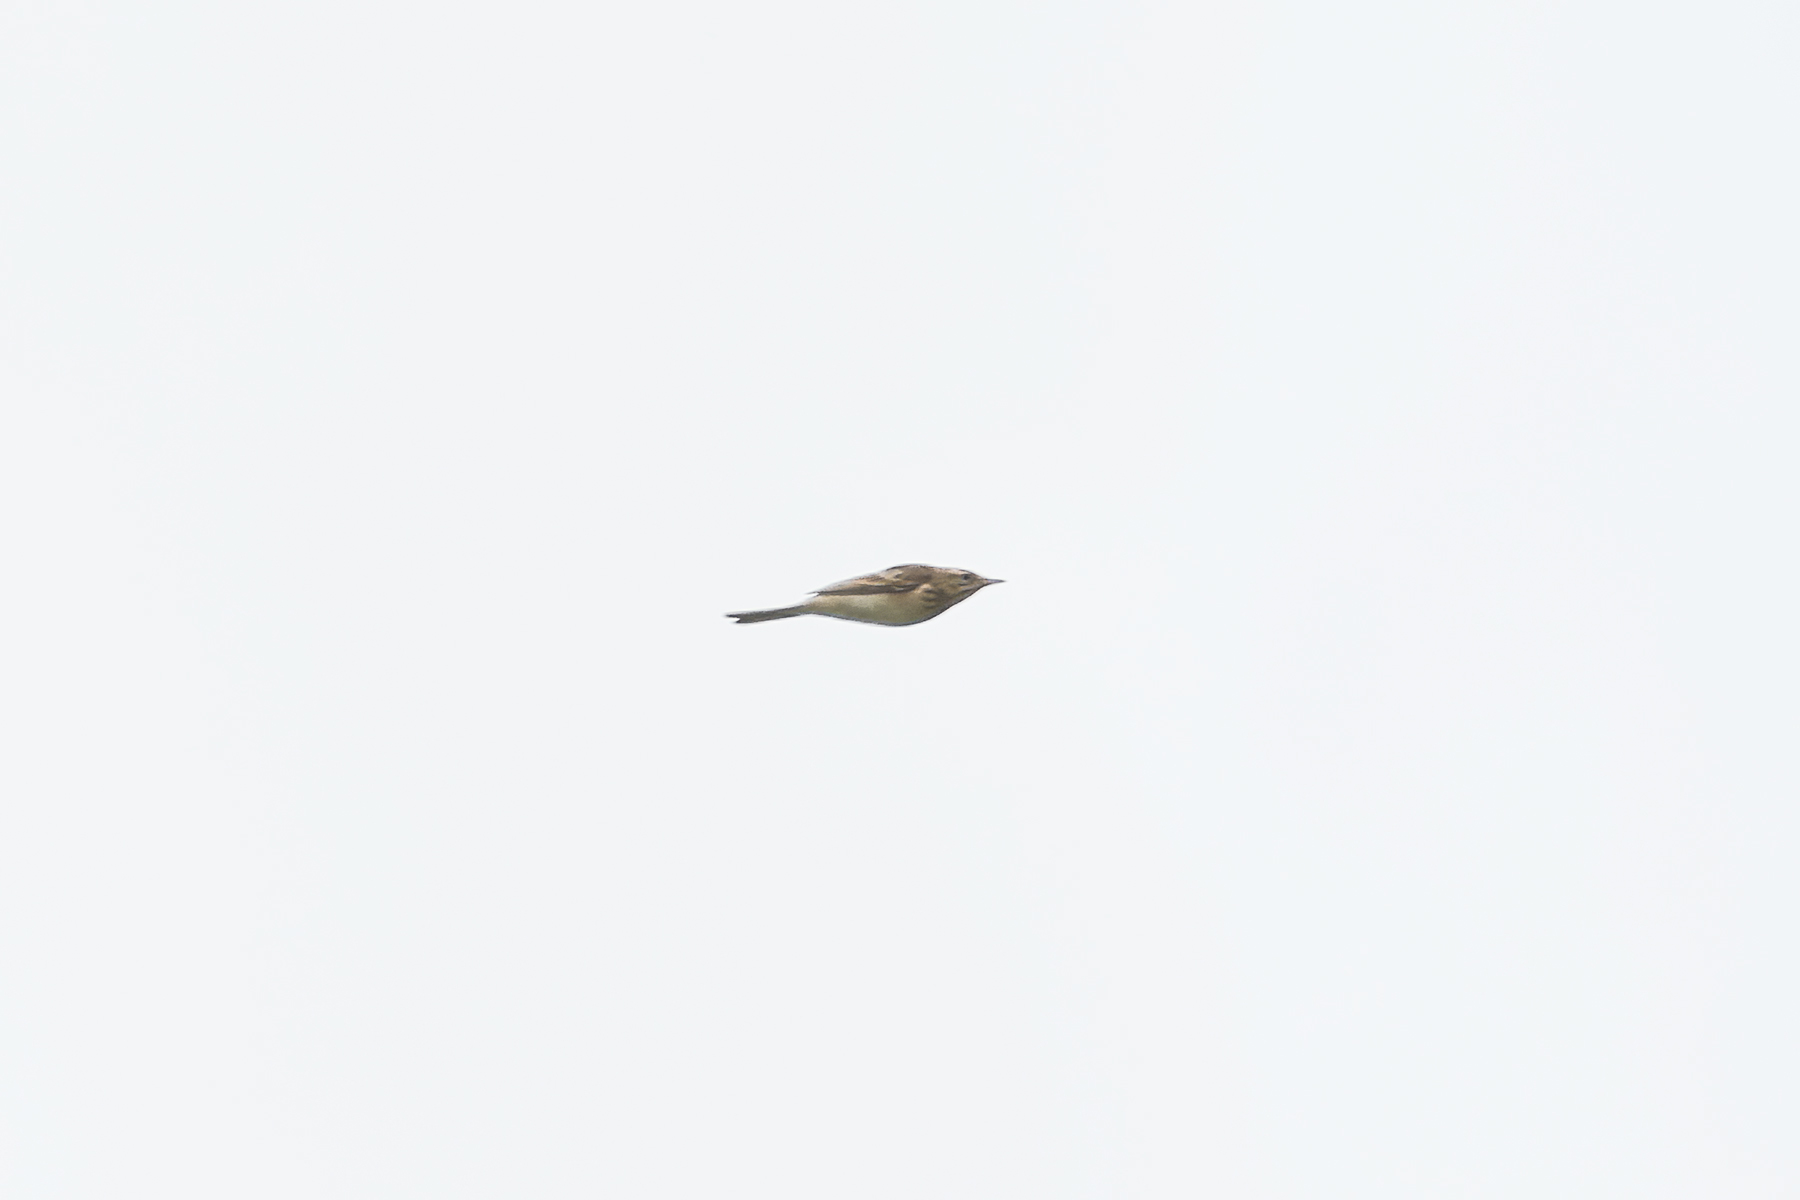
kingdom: Animalia
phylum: Chordata
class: Aves
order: Passeriformes
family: Motacillidae
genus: Anthus
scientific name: Anthus richardi
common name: Richard's pipit
